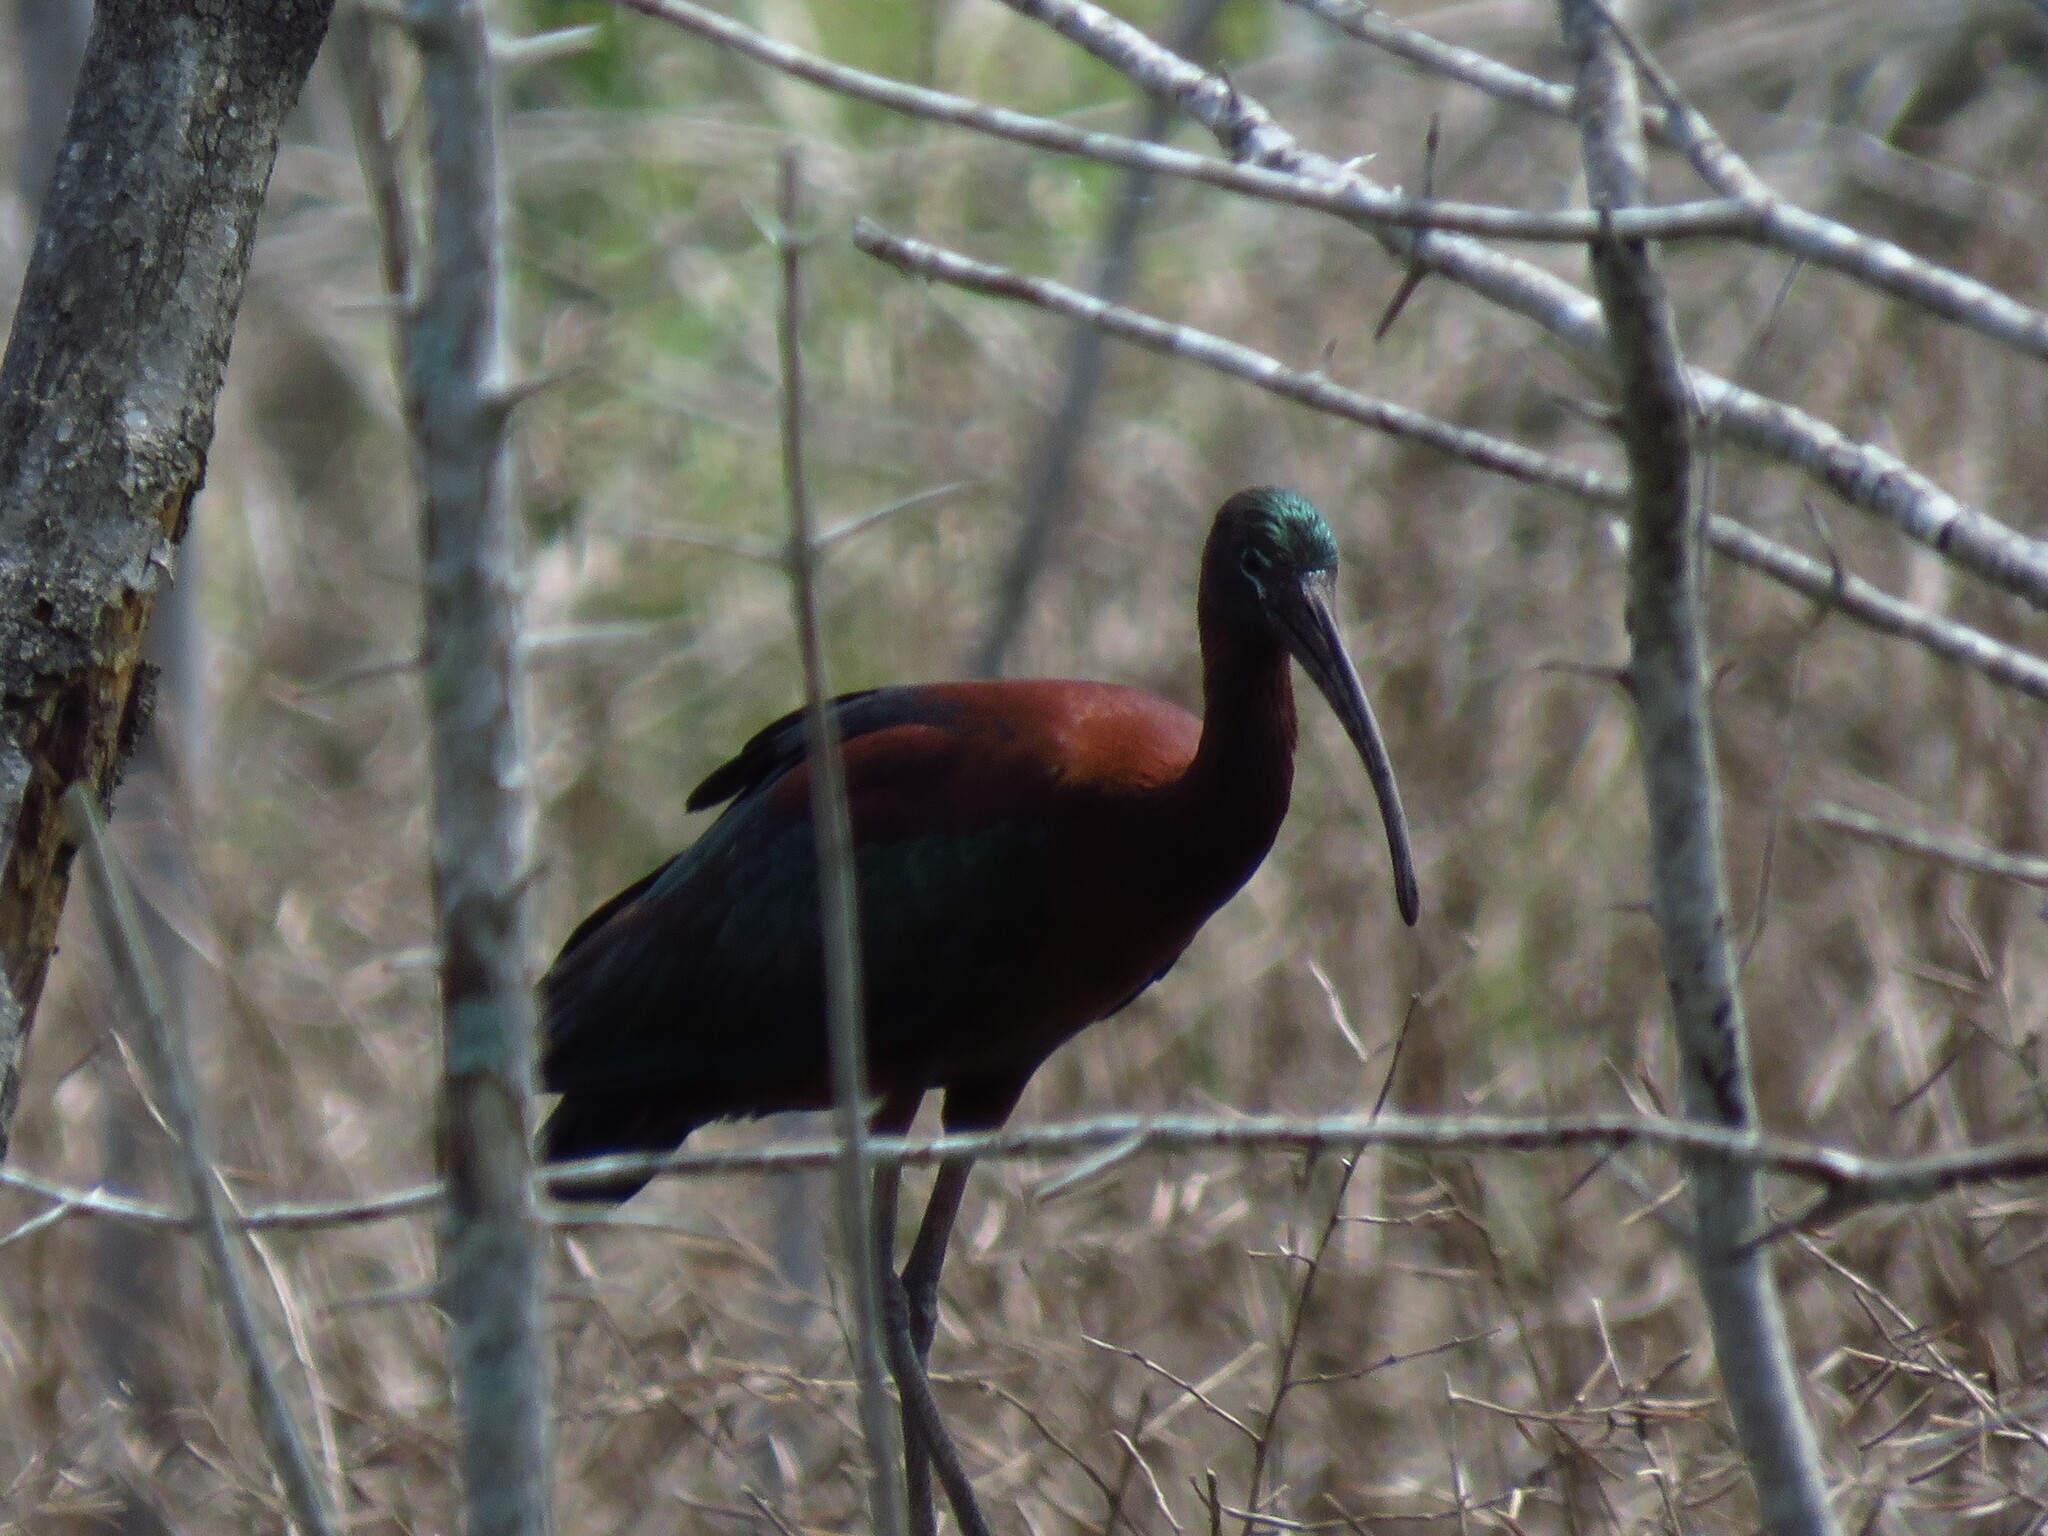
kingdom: Animalia
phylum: Chordata
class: Aves
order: Pelecaniformes
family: Threskiornithidae
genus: Plegadis
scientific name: Plegadis falcinellus
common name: Glossy ibis
